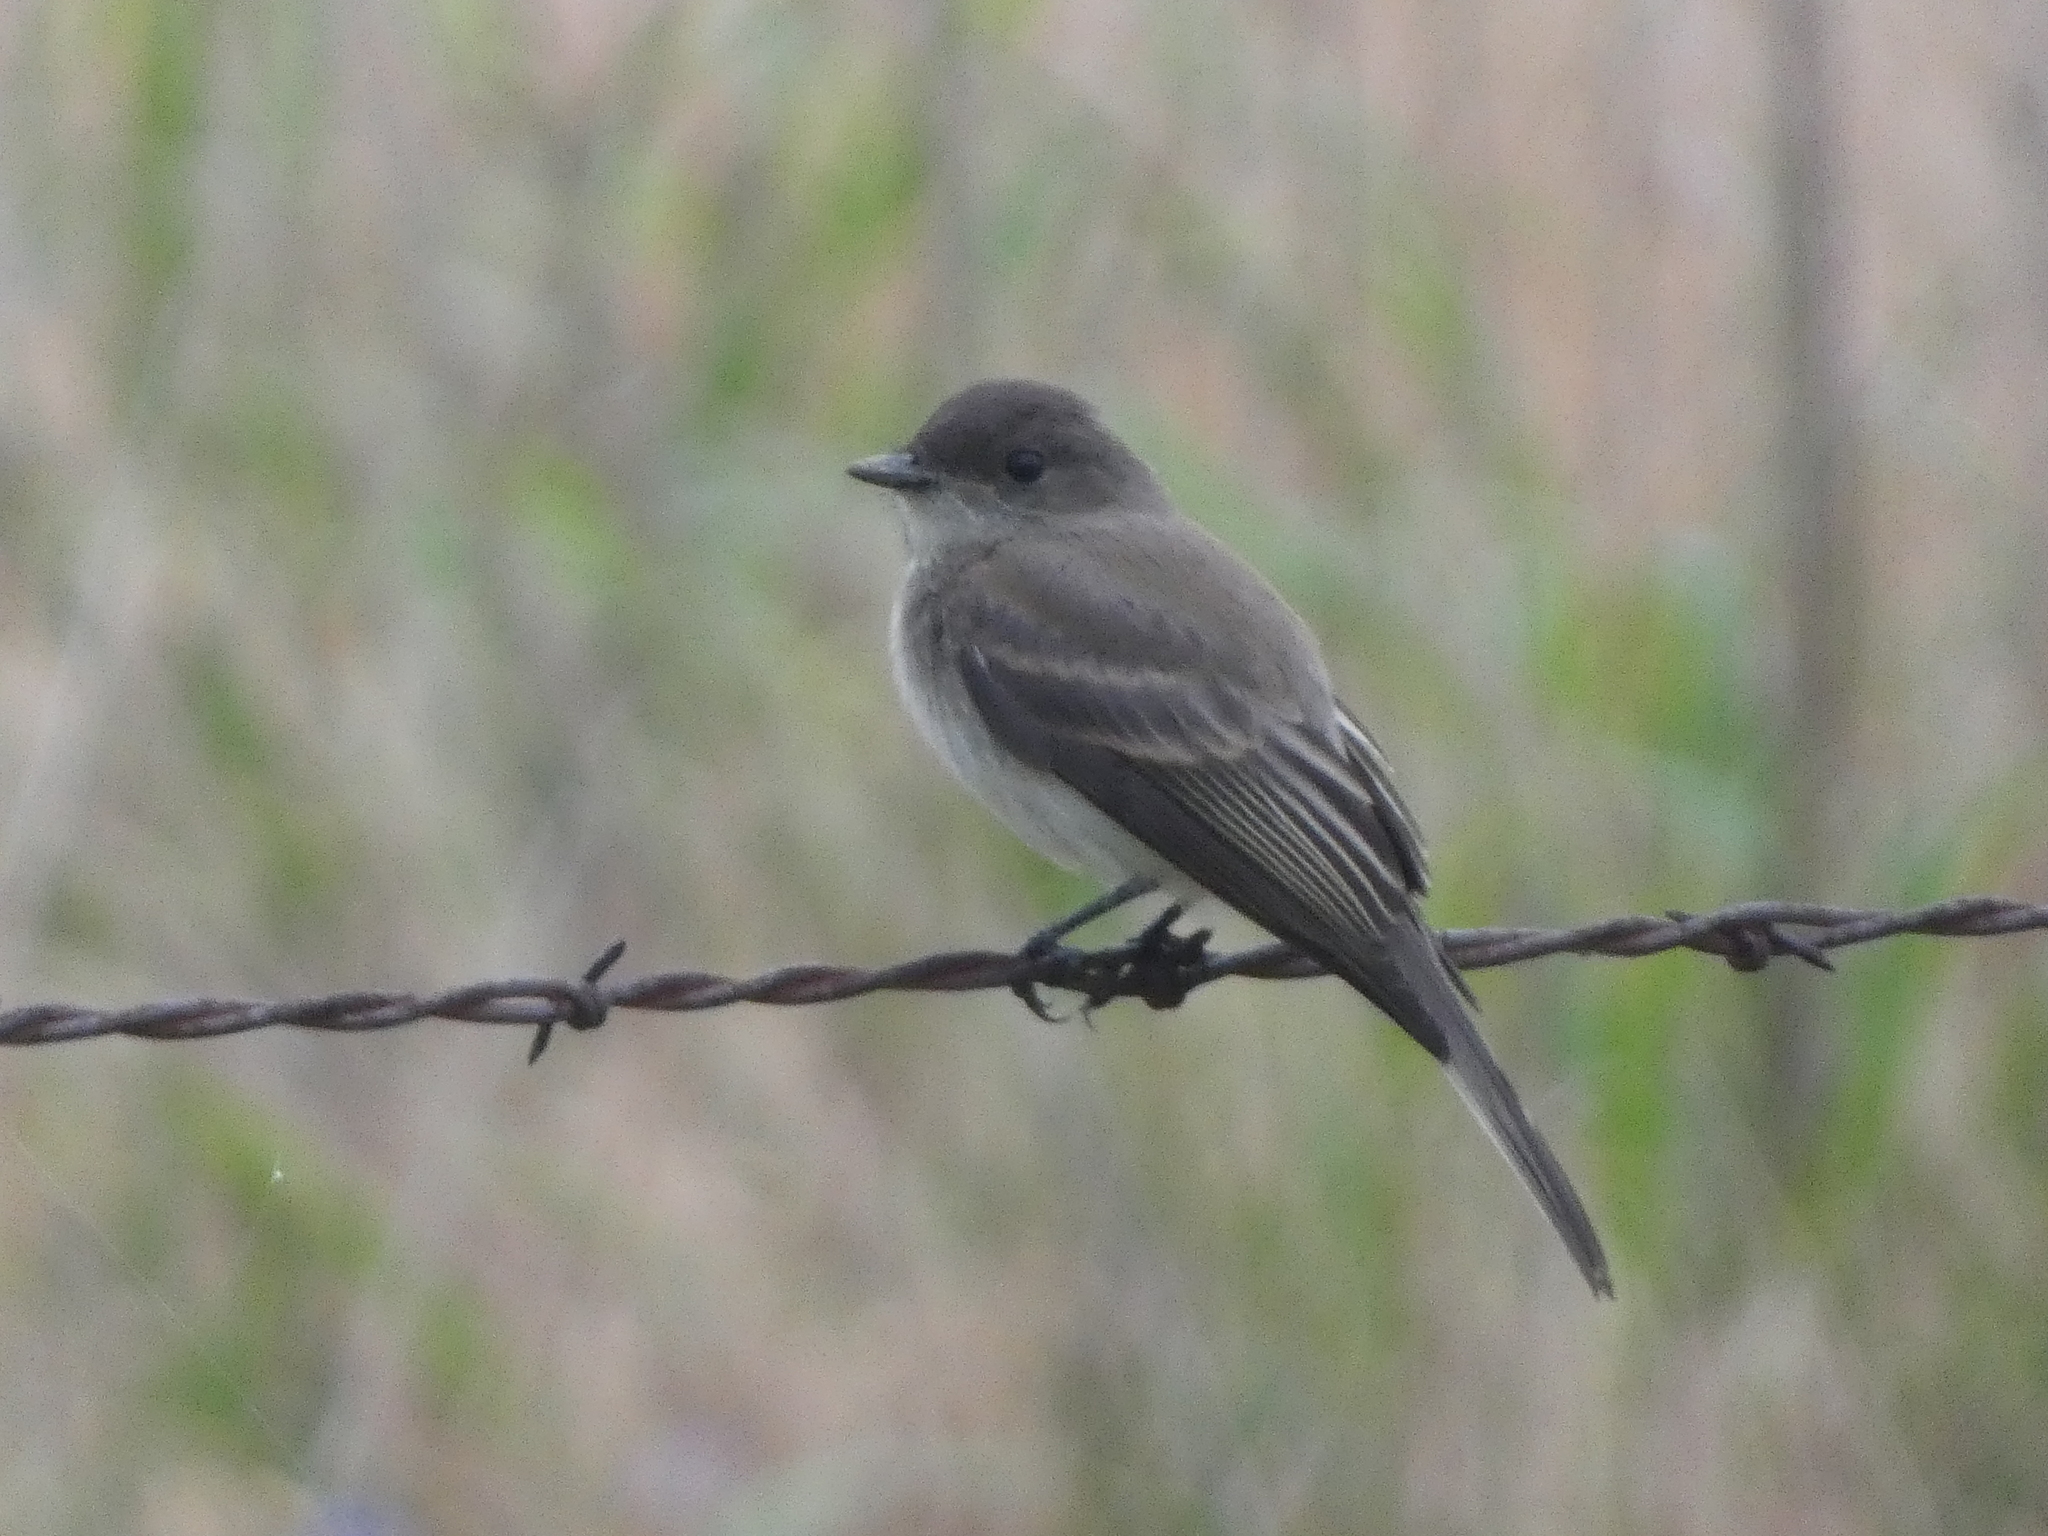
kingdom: Animalia
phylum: Chordata
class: Aves
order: Passeriformes
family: Tyrannidae
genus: Sayornis
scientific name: Sayornis phoebe
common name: Eastern phoebe
